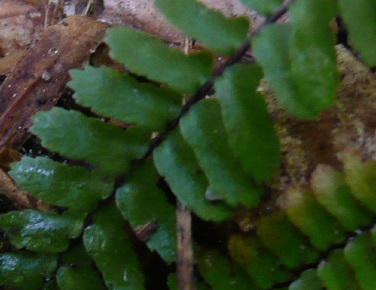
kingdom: Plantae
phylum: Tracheophyta
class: Polypodiopsida
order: Polypodiales
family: Aspleniaceae
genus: Asplenium
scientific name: Asplenium platyneuron
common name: Ebony spleenwort
